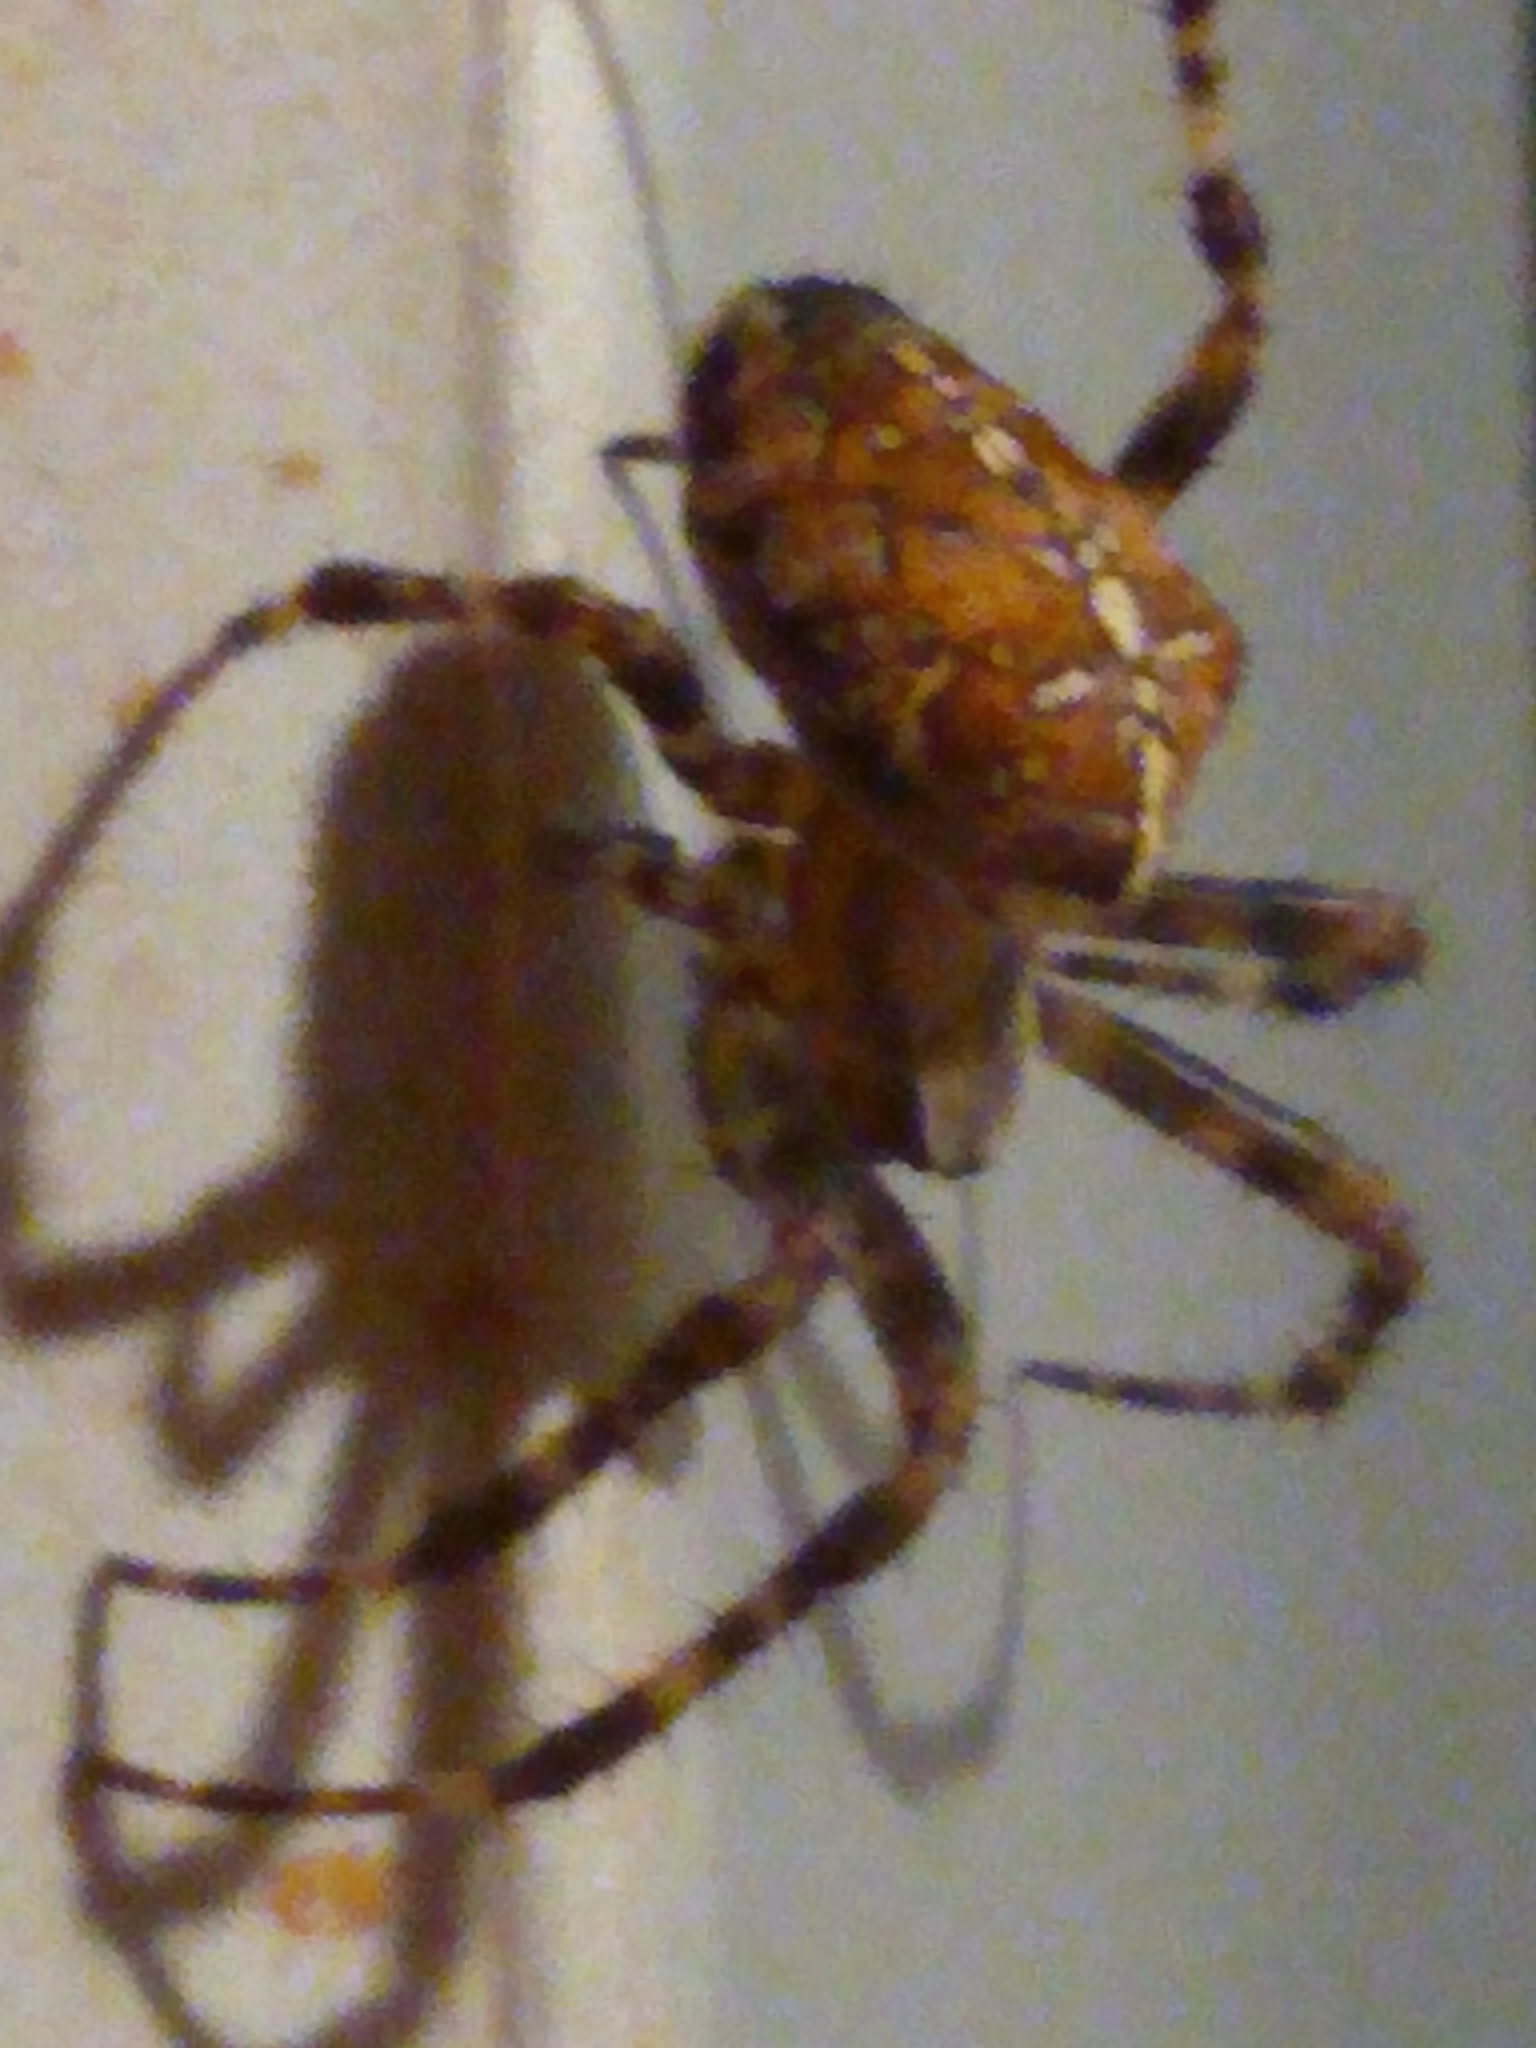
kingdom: Animalia
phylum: Arthropoda
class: Arachnida
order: Araneae
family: Araneidae
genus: Araneus
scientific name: Araneus diadematus
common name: Cross orbweaver
